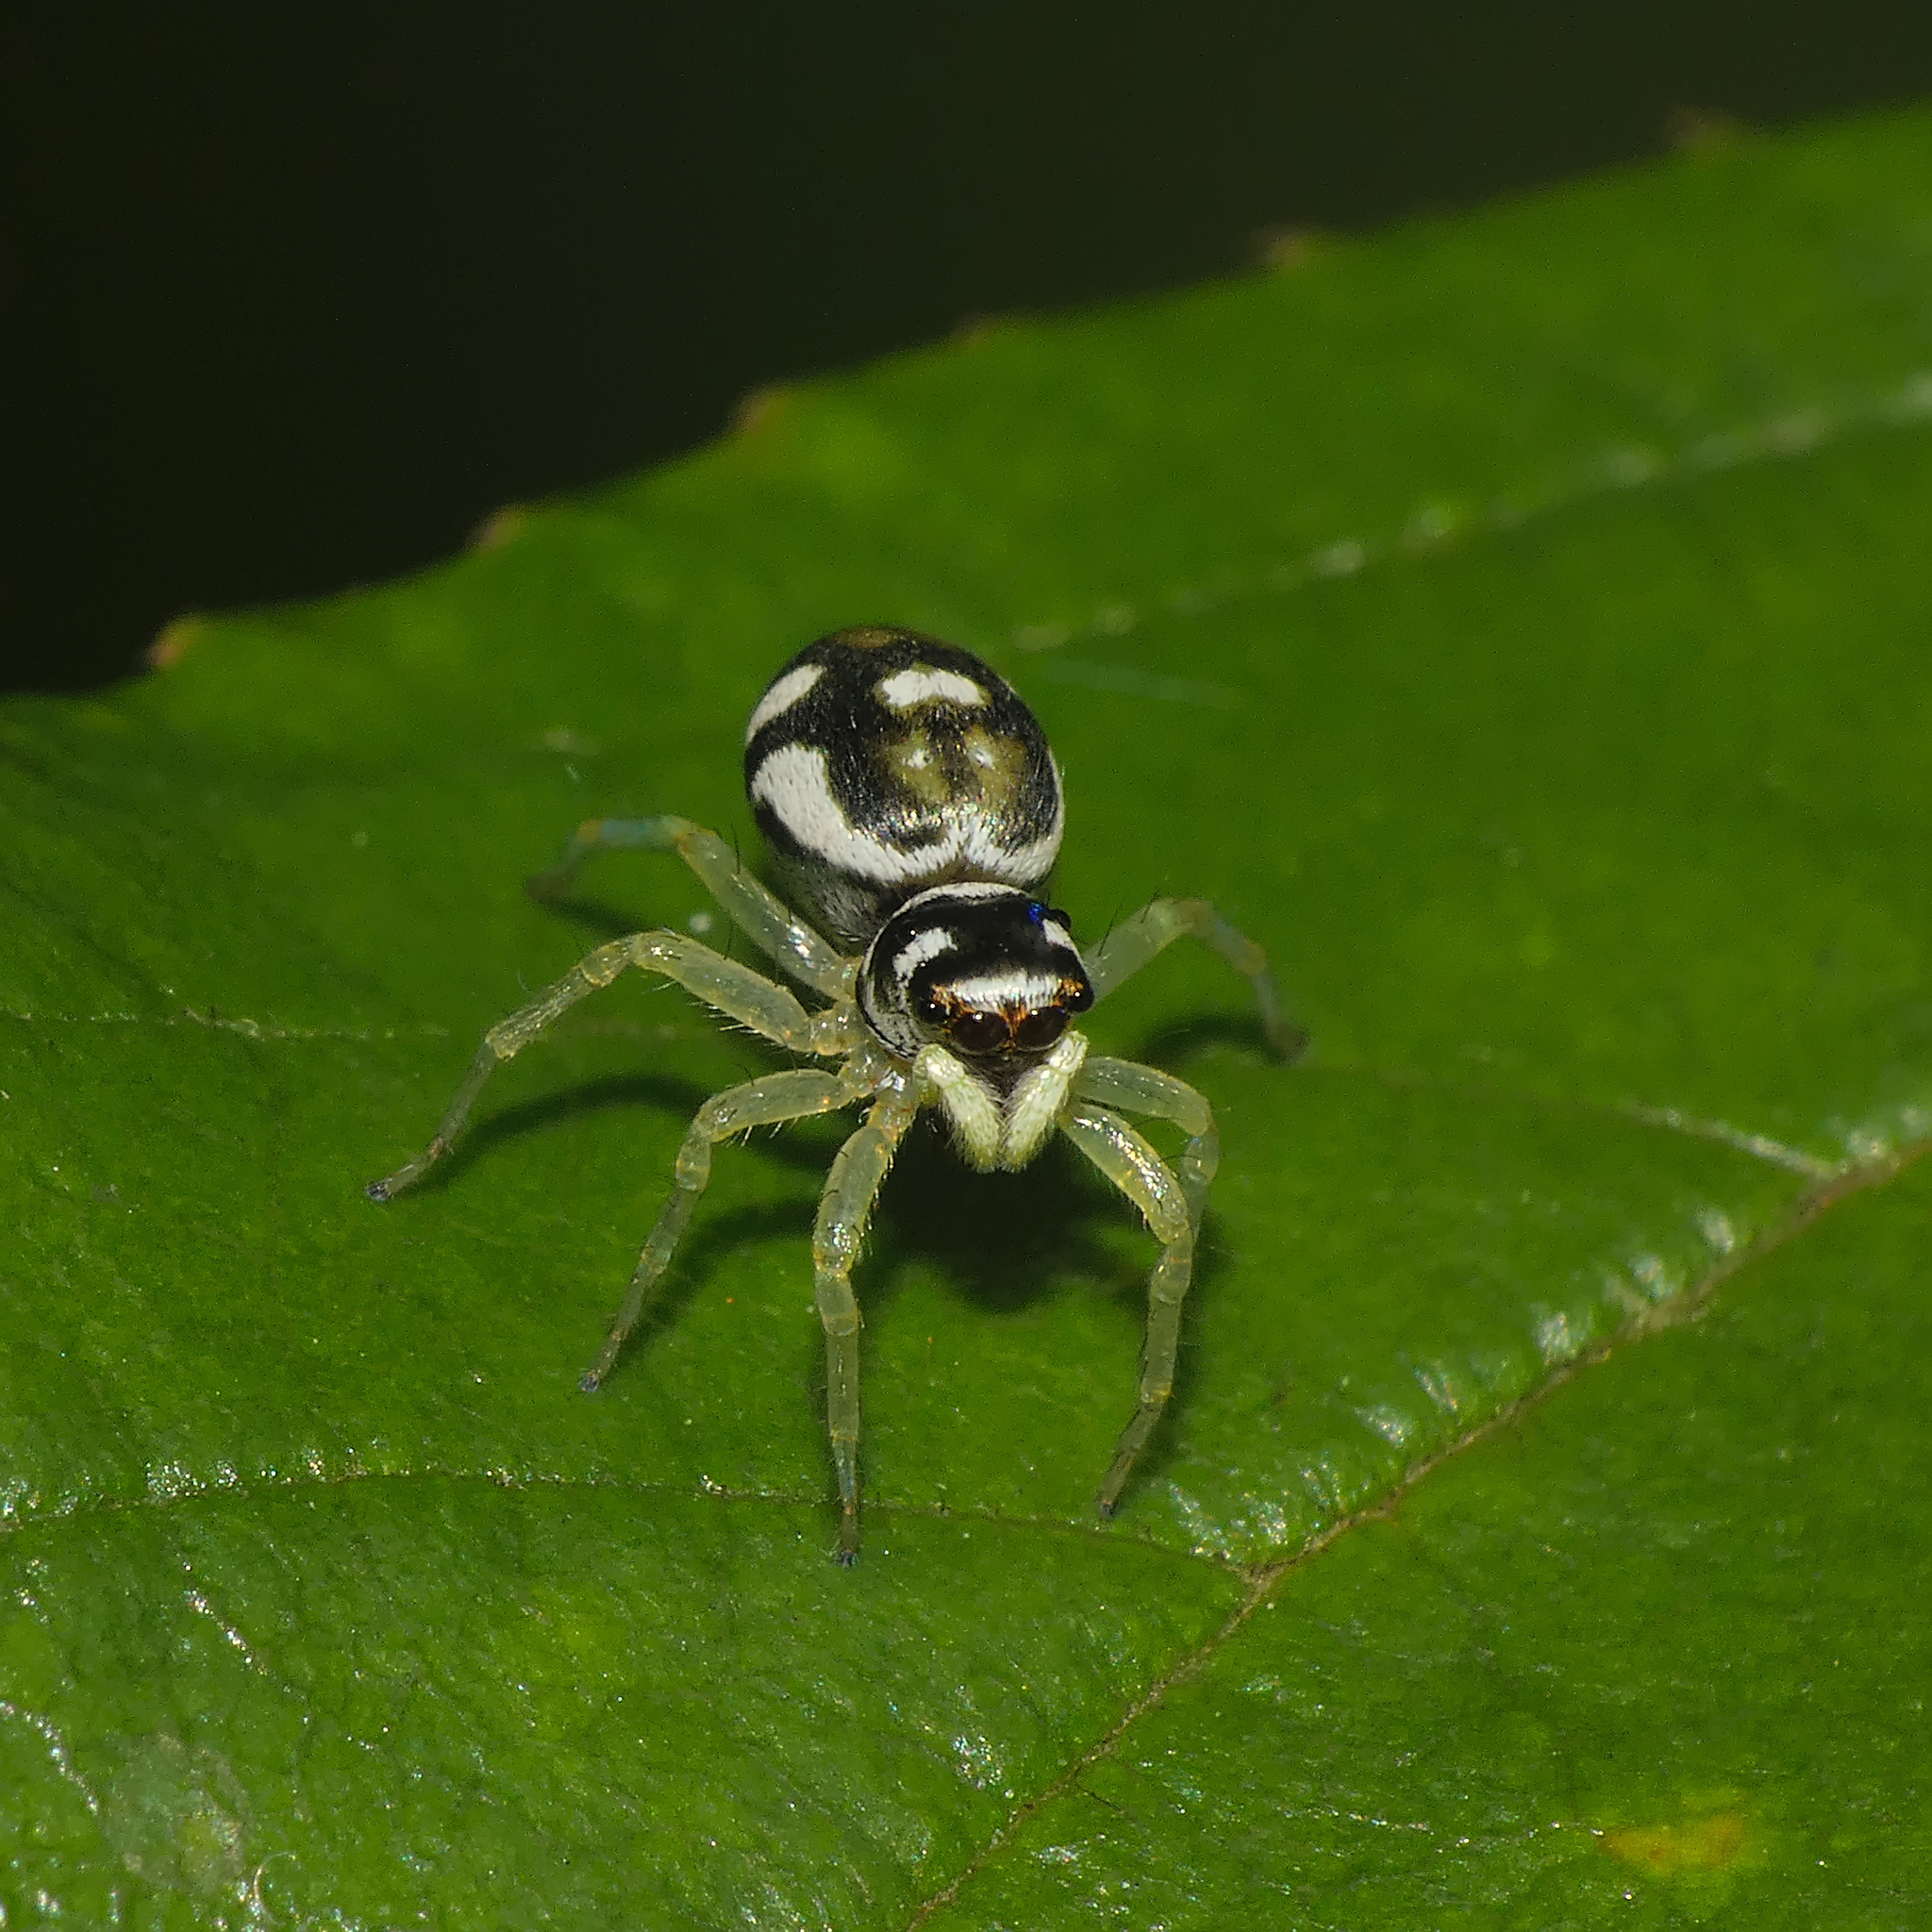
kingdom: Animalia
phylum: Arthropoda
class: Arachnida
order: Araneae
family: Salticidae
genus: Phintella
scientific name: Phintella aequipes
